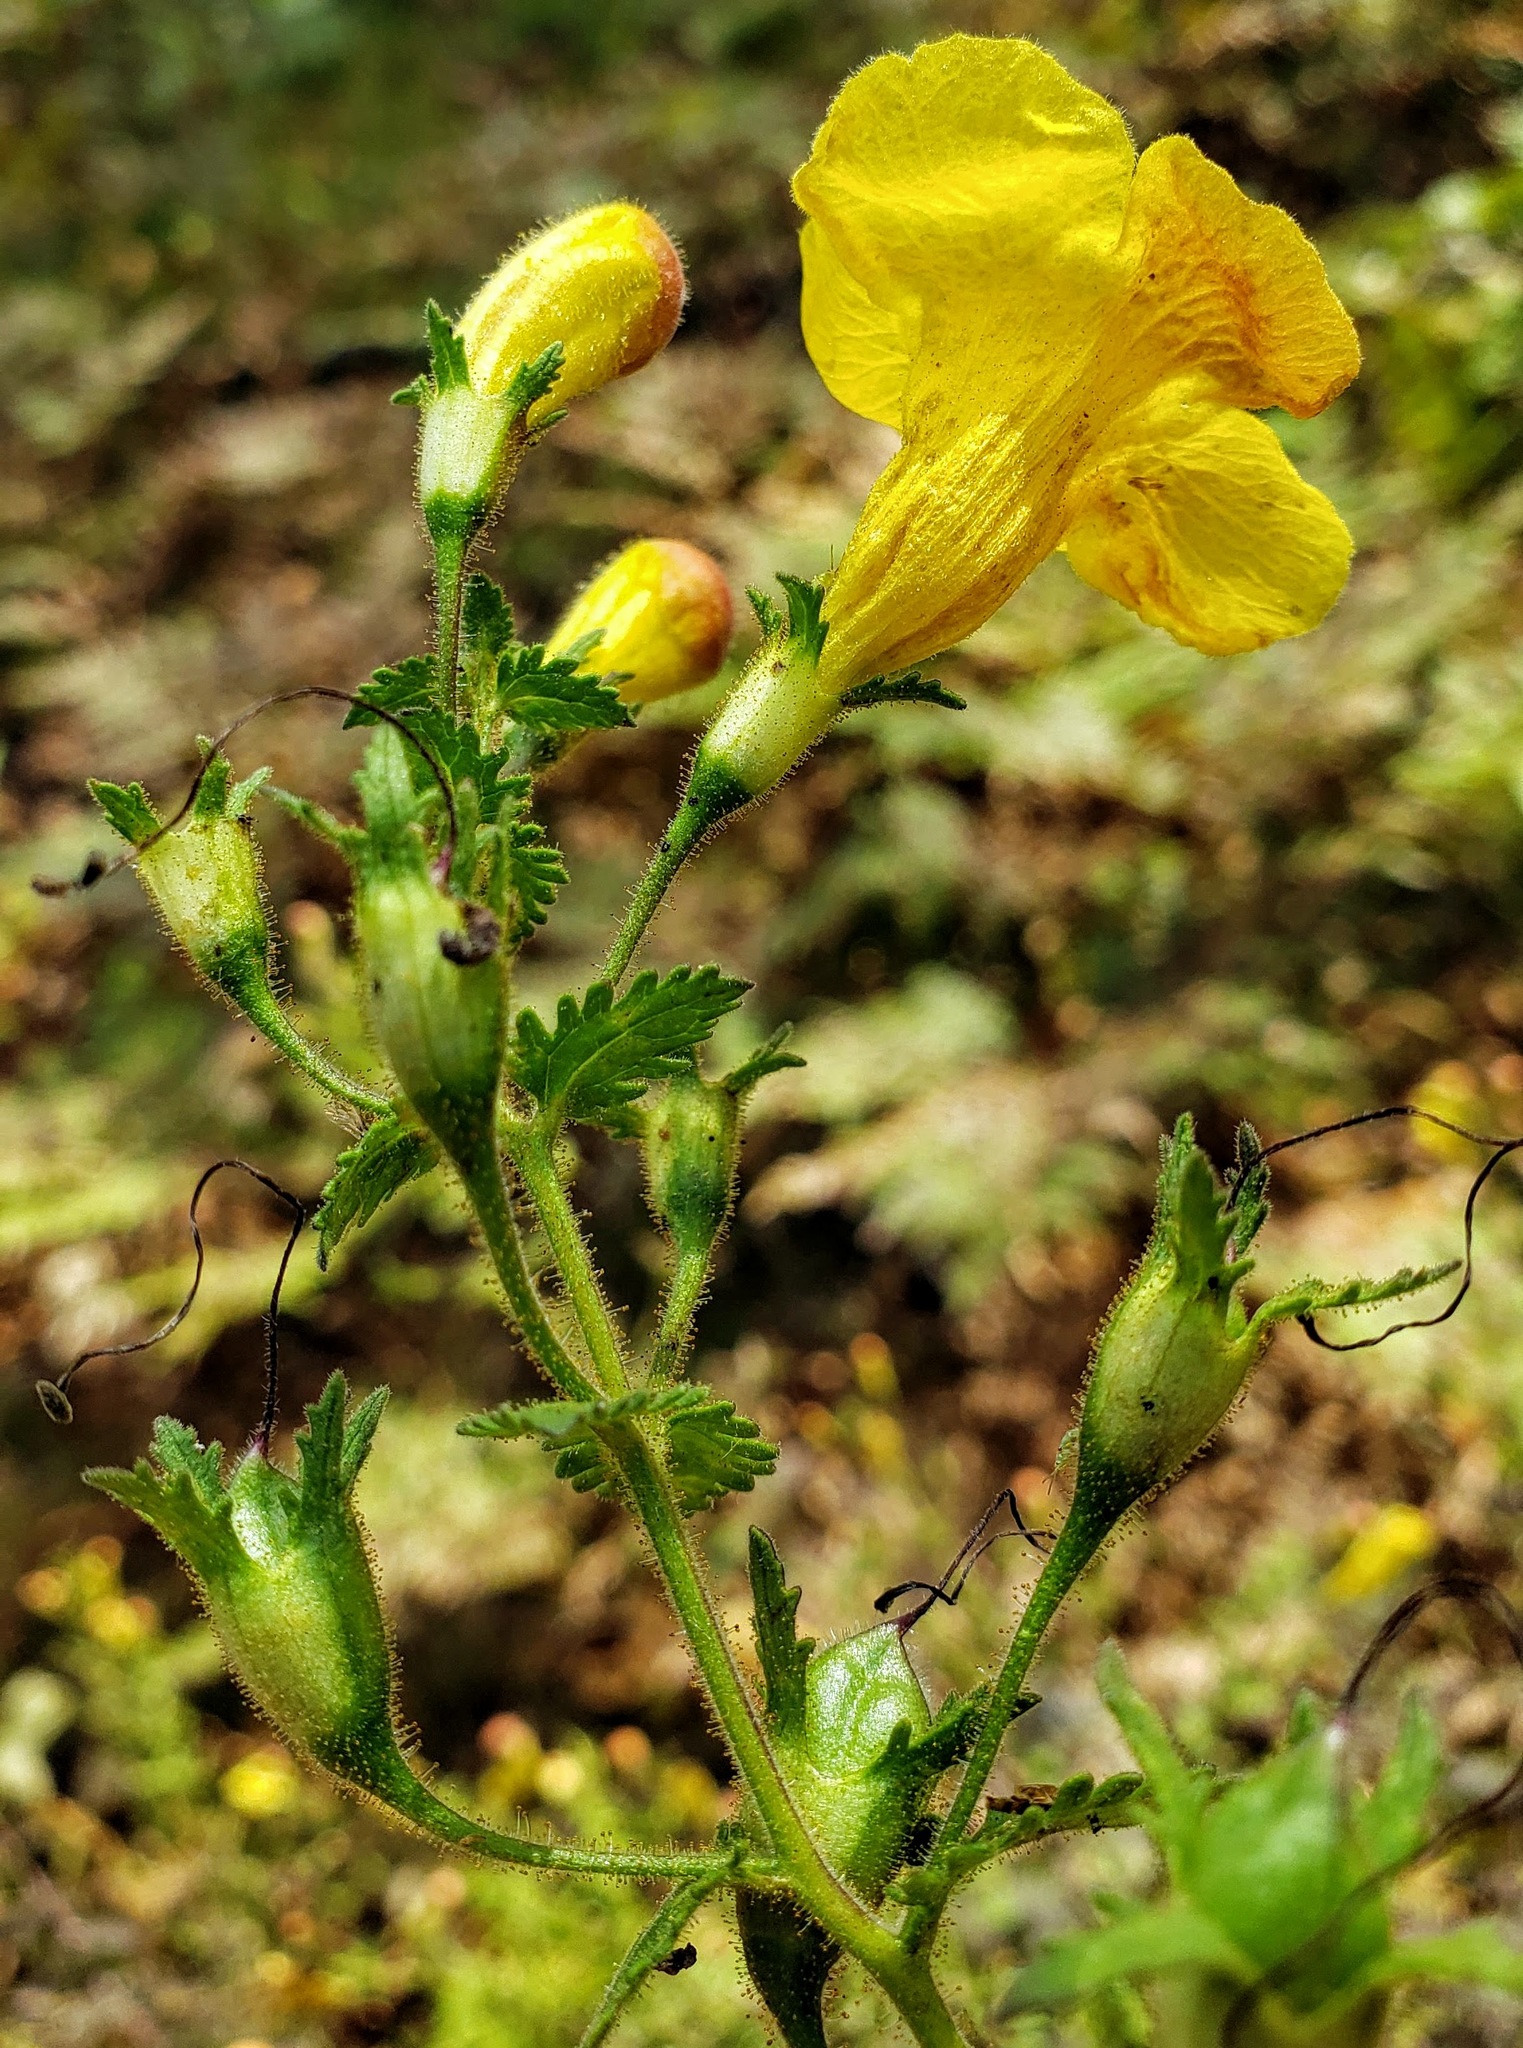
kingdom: Plantae
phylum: Tracheophyta
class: Magnoliopsida
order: Lamiales
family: Orobanchaceae
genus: Aureolaria
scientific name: Aureolaria pedicularia
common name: Annual false foxglove
